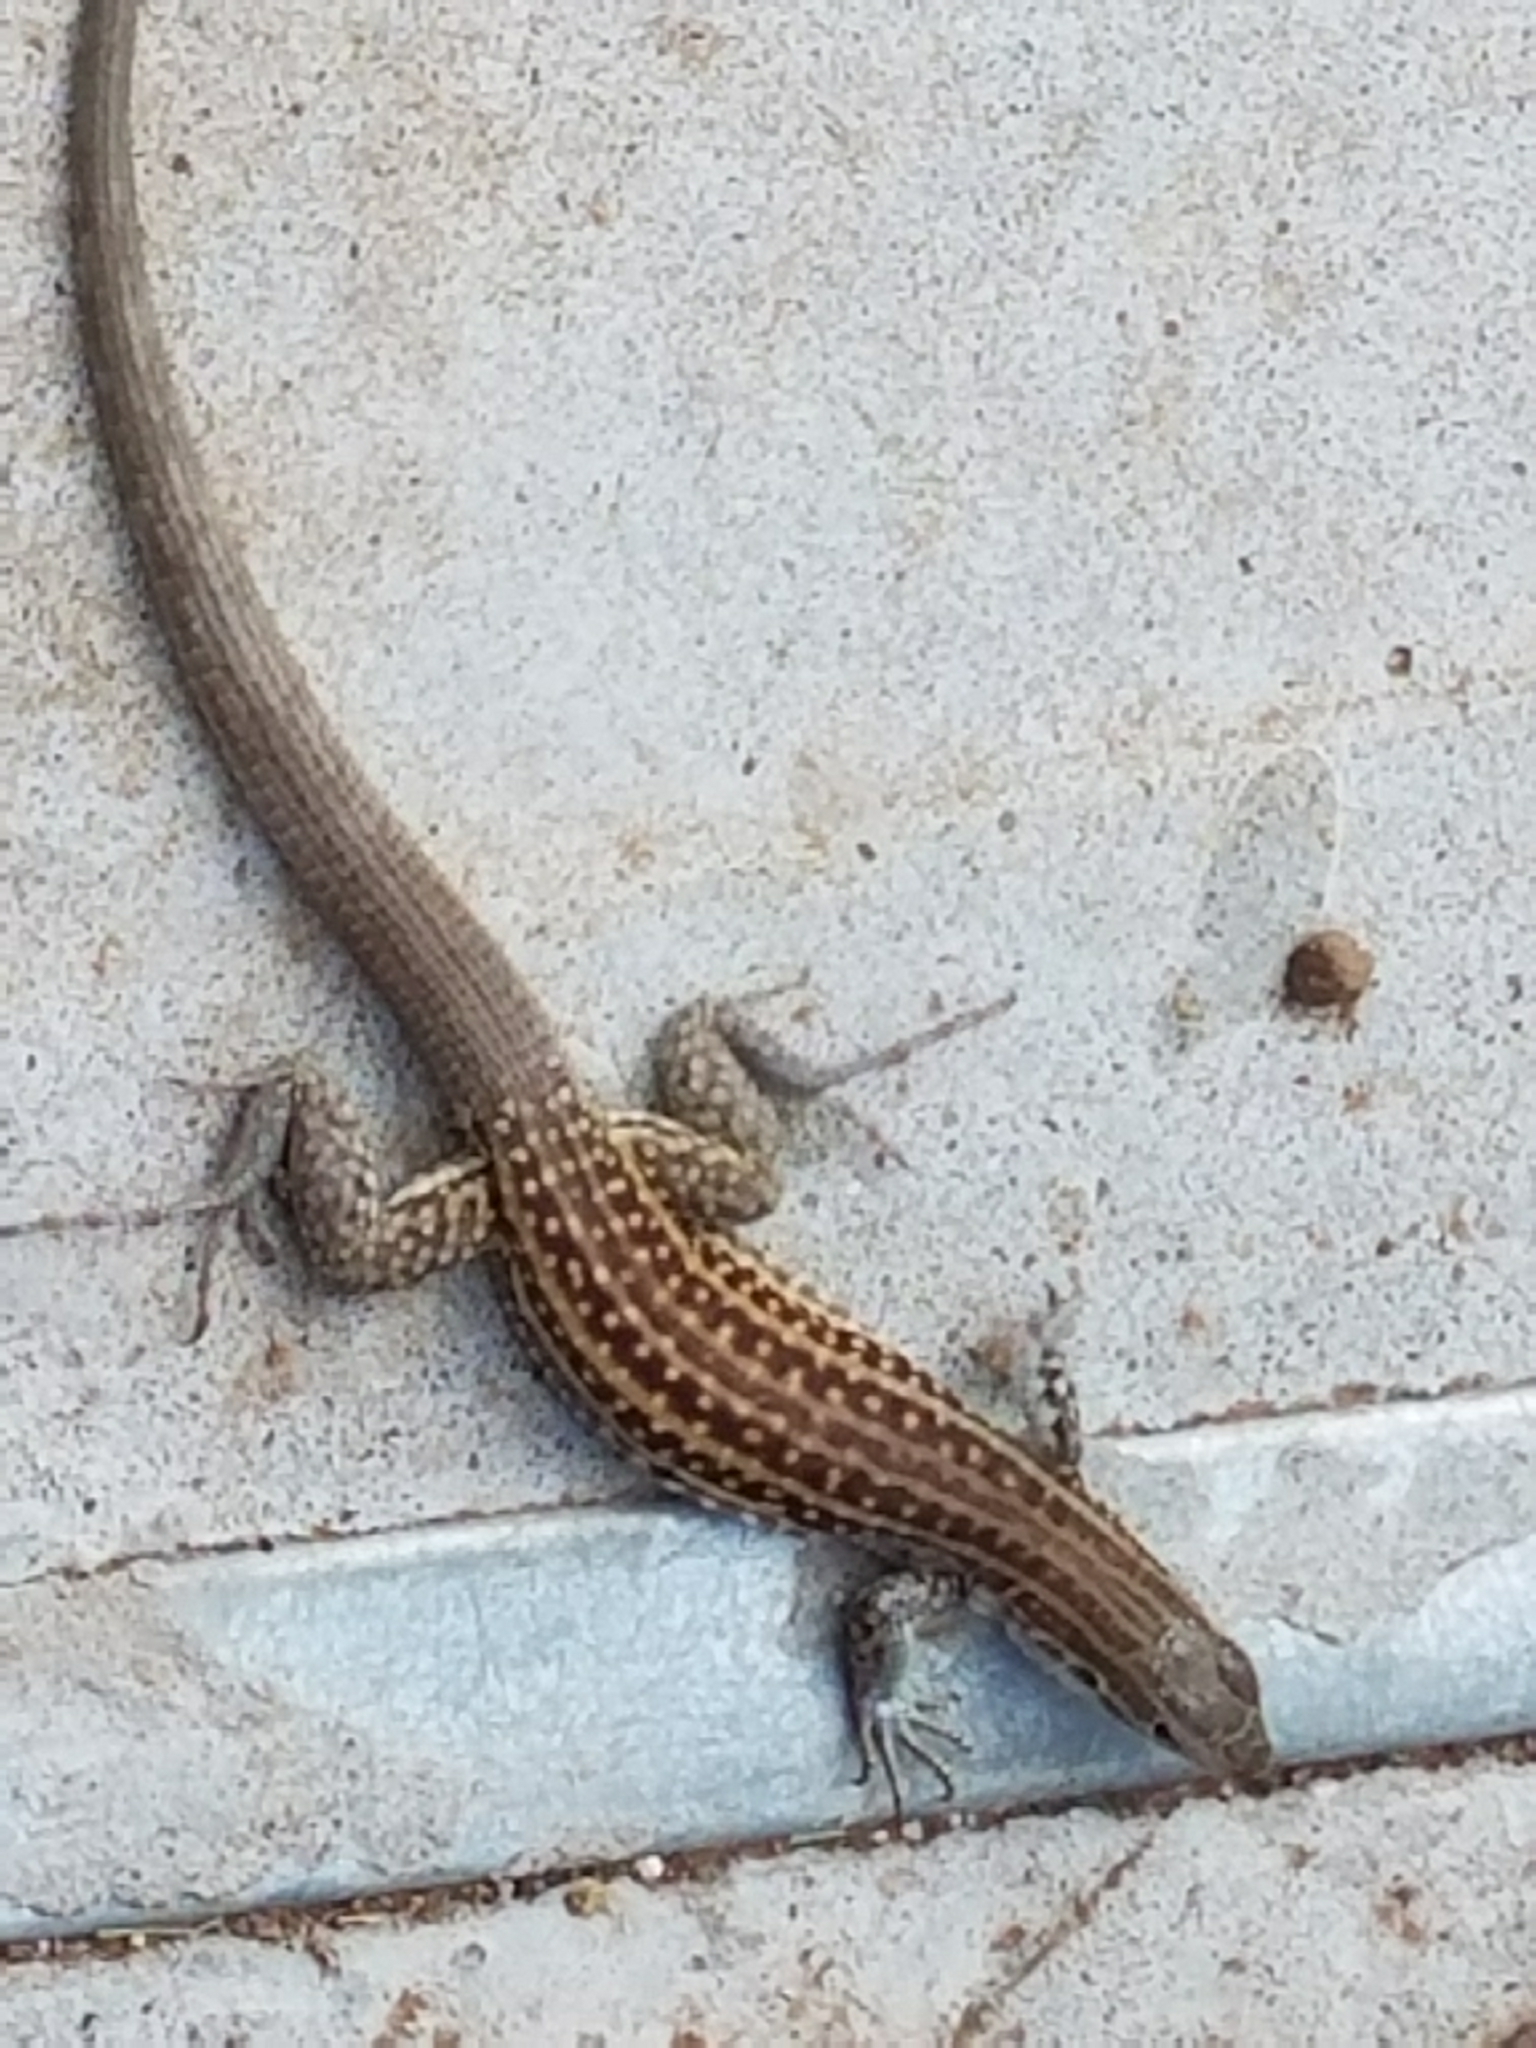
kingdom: Animalia
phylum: Chordata
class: Squamata
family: Teiidae
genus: Aspidoscelis
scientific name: Aspidoscelis exsanguis
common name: Chihuahuan spotted whiptail
